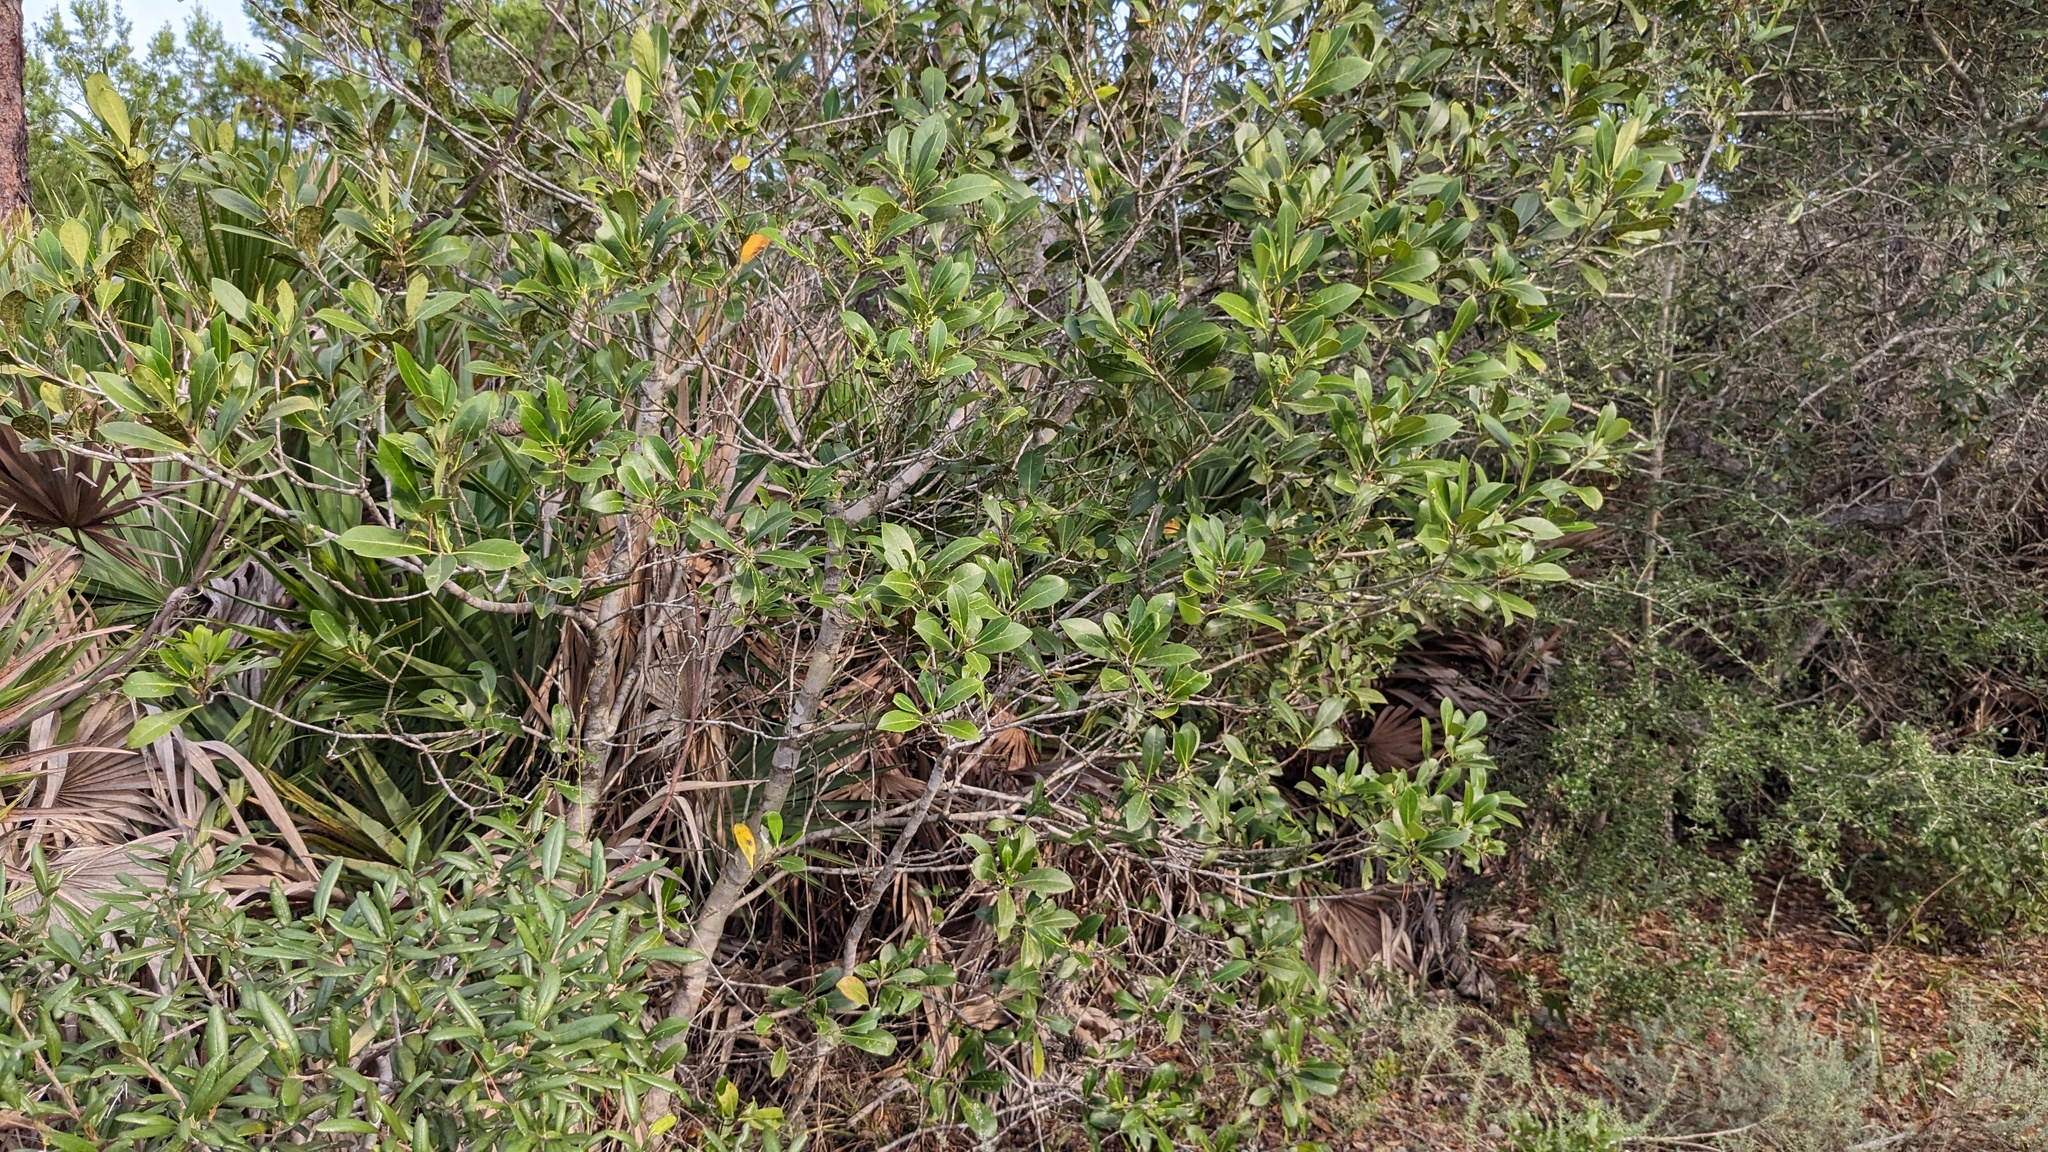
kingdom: Plantae
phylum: Tracheophyta
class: Magnoliopsida
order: Lamiales
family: Oleaceae
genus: Cartrema
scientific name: Cartrema americana
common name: Devilwood
